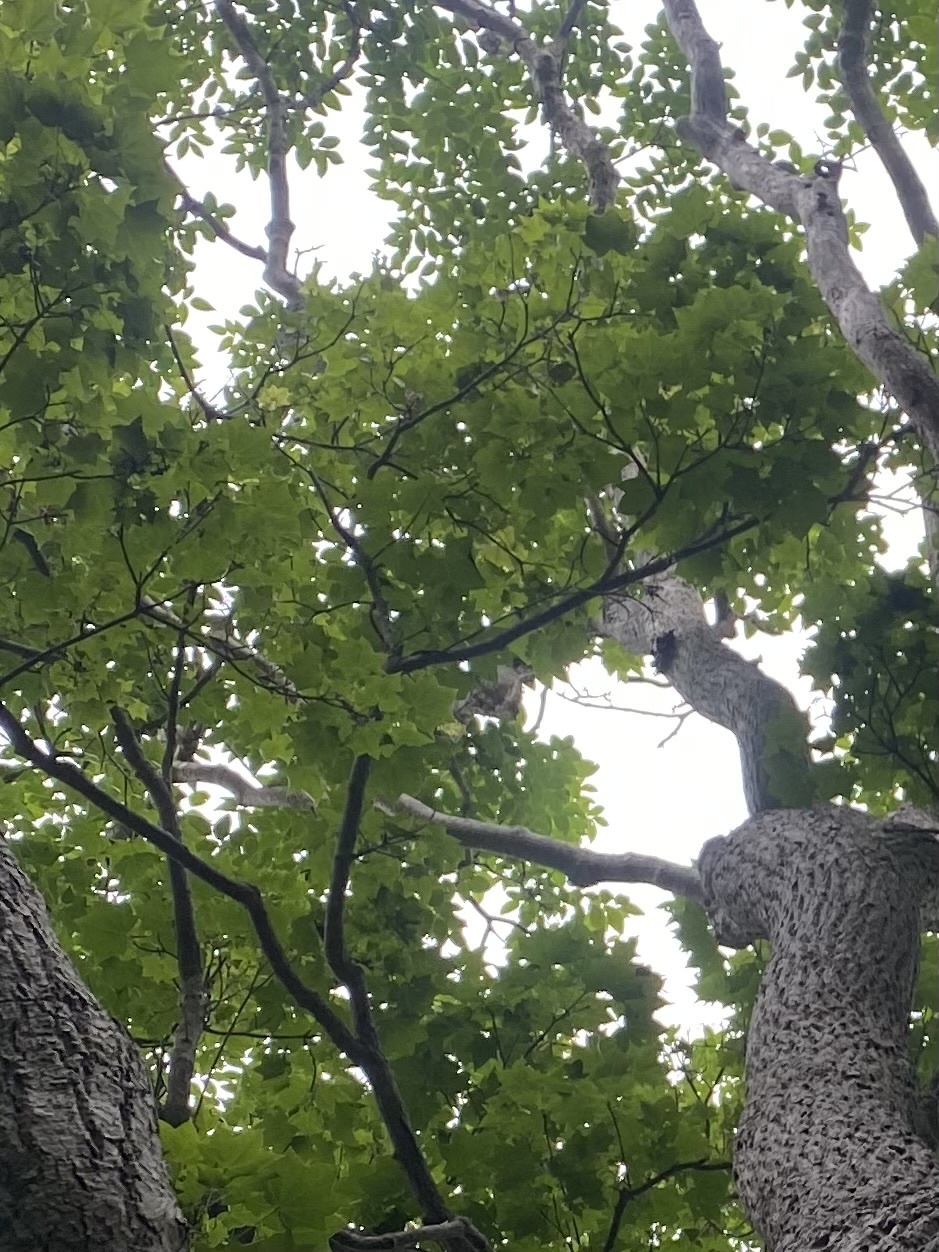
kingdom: Plantae
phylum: Tracheophyta
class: Magnoliopsida
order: Apiales
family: Araliaceae
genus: Kalopanax
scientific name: Kalopanax septemlobus
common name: Castor aralia
